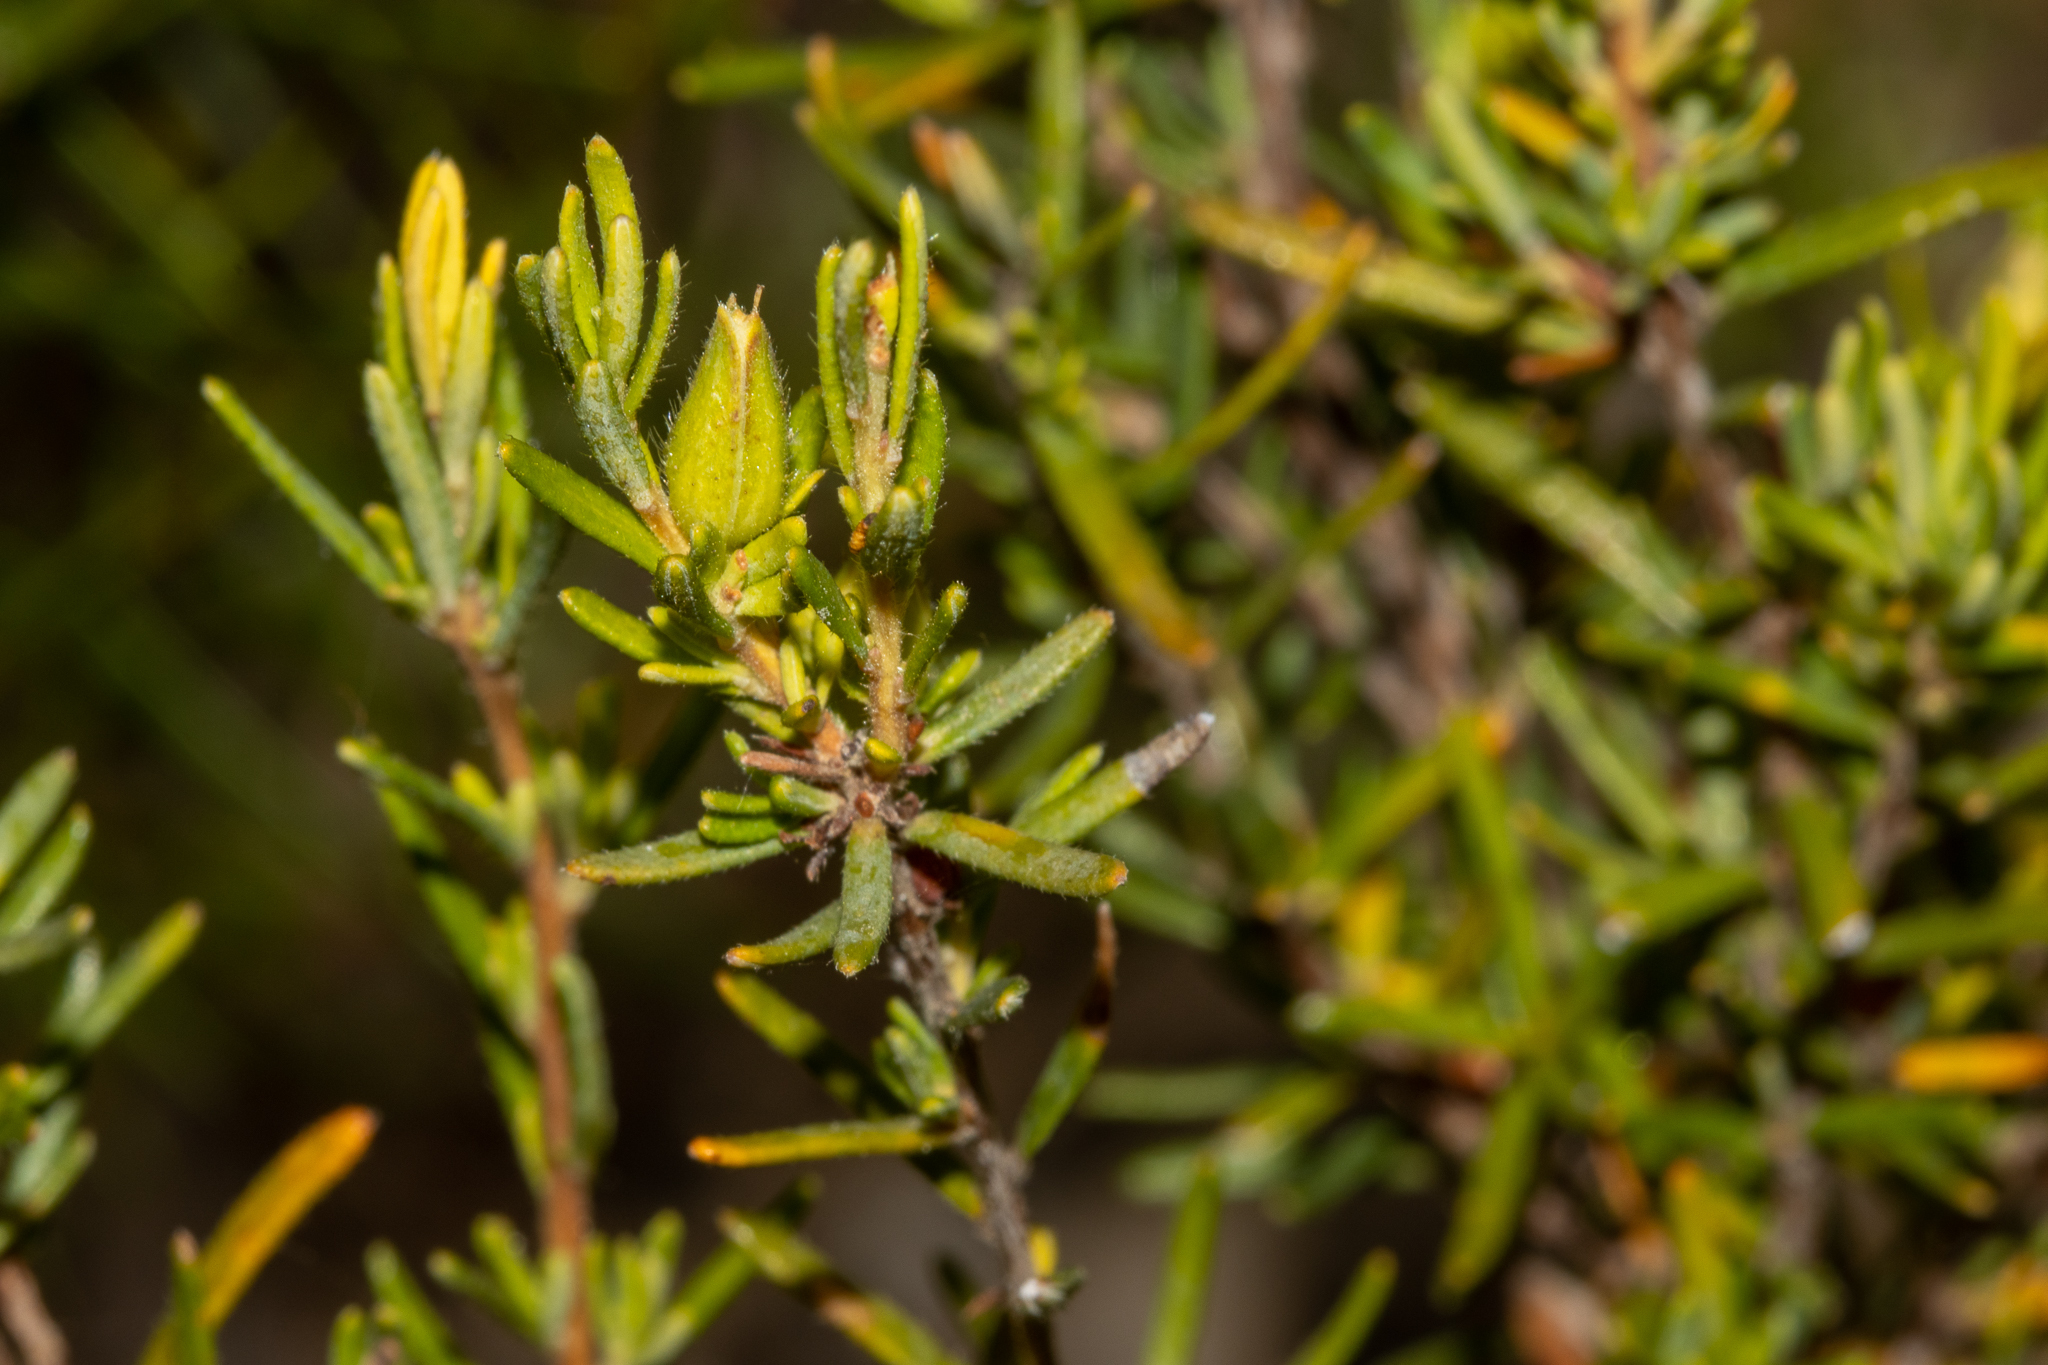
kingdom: Plantae
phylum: Tracheophyta
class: Magnoliopsida
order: Dilleniales
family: Dilleniaceae
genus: Hibbertia
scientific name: Hibbertia riparia
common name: Erect guinea-flower
